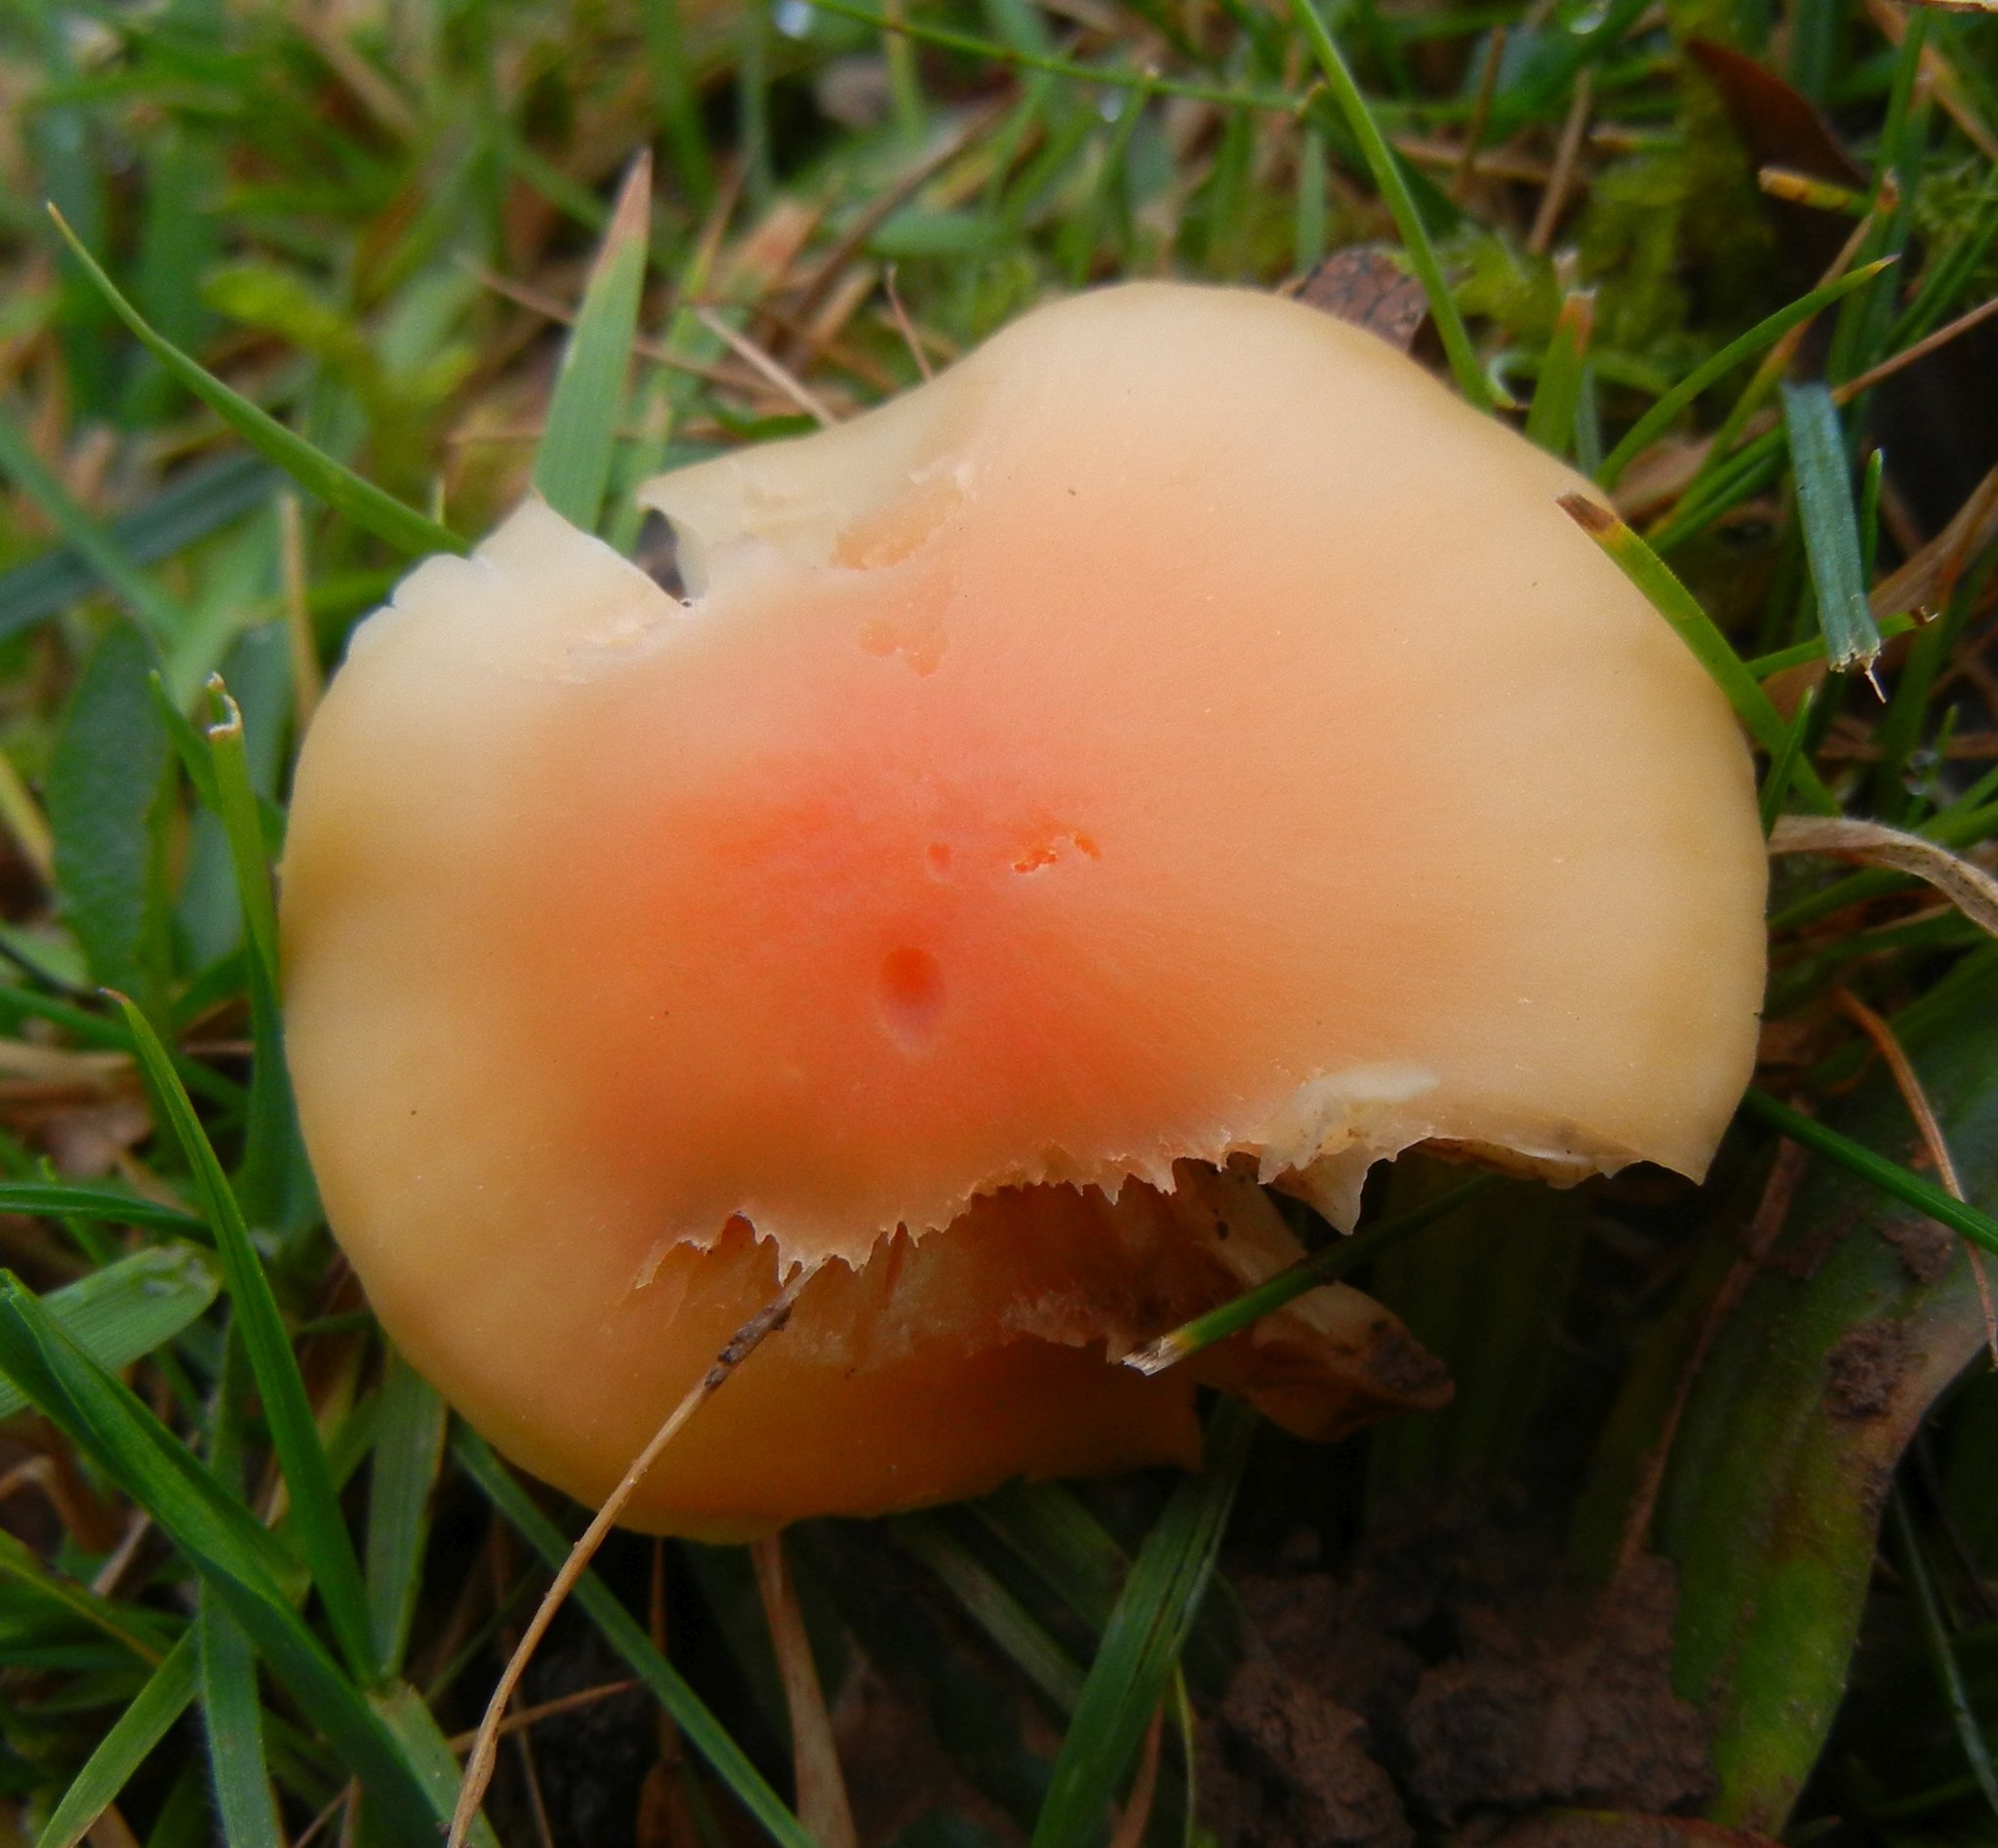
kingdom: Fungi
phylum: Basidiomycota
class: Agaricomycetes
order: Agaricales
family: Hygrophoraceae
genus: Cuphophyllus
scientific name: Cuphophyllus pratensis
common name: Meadow waxcap
